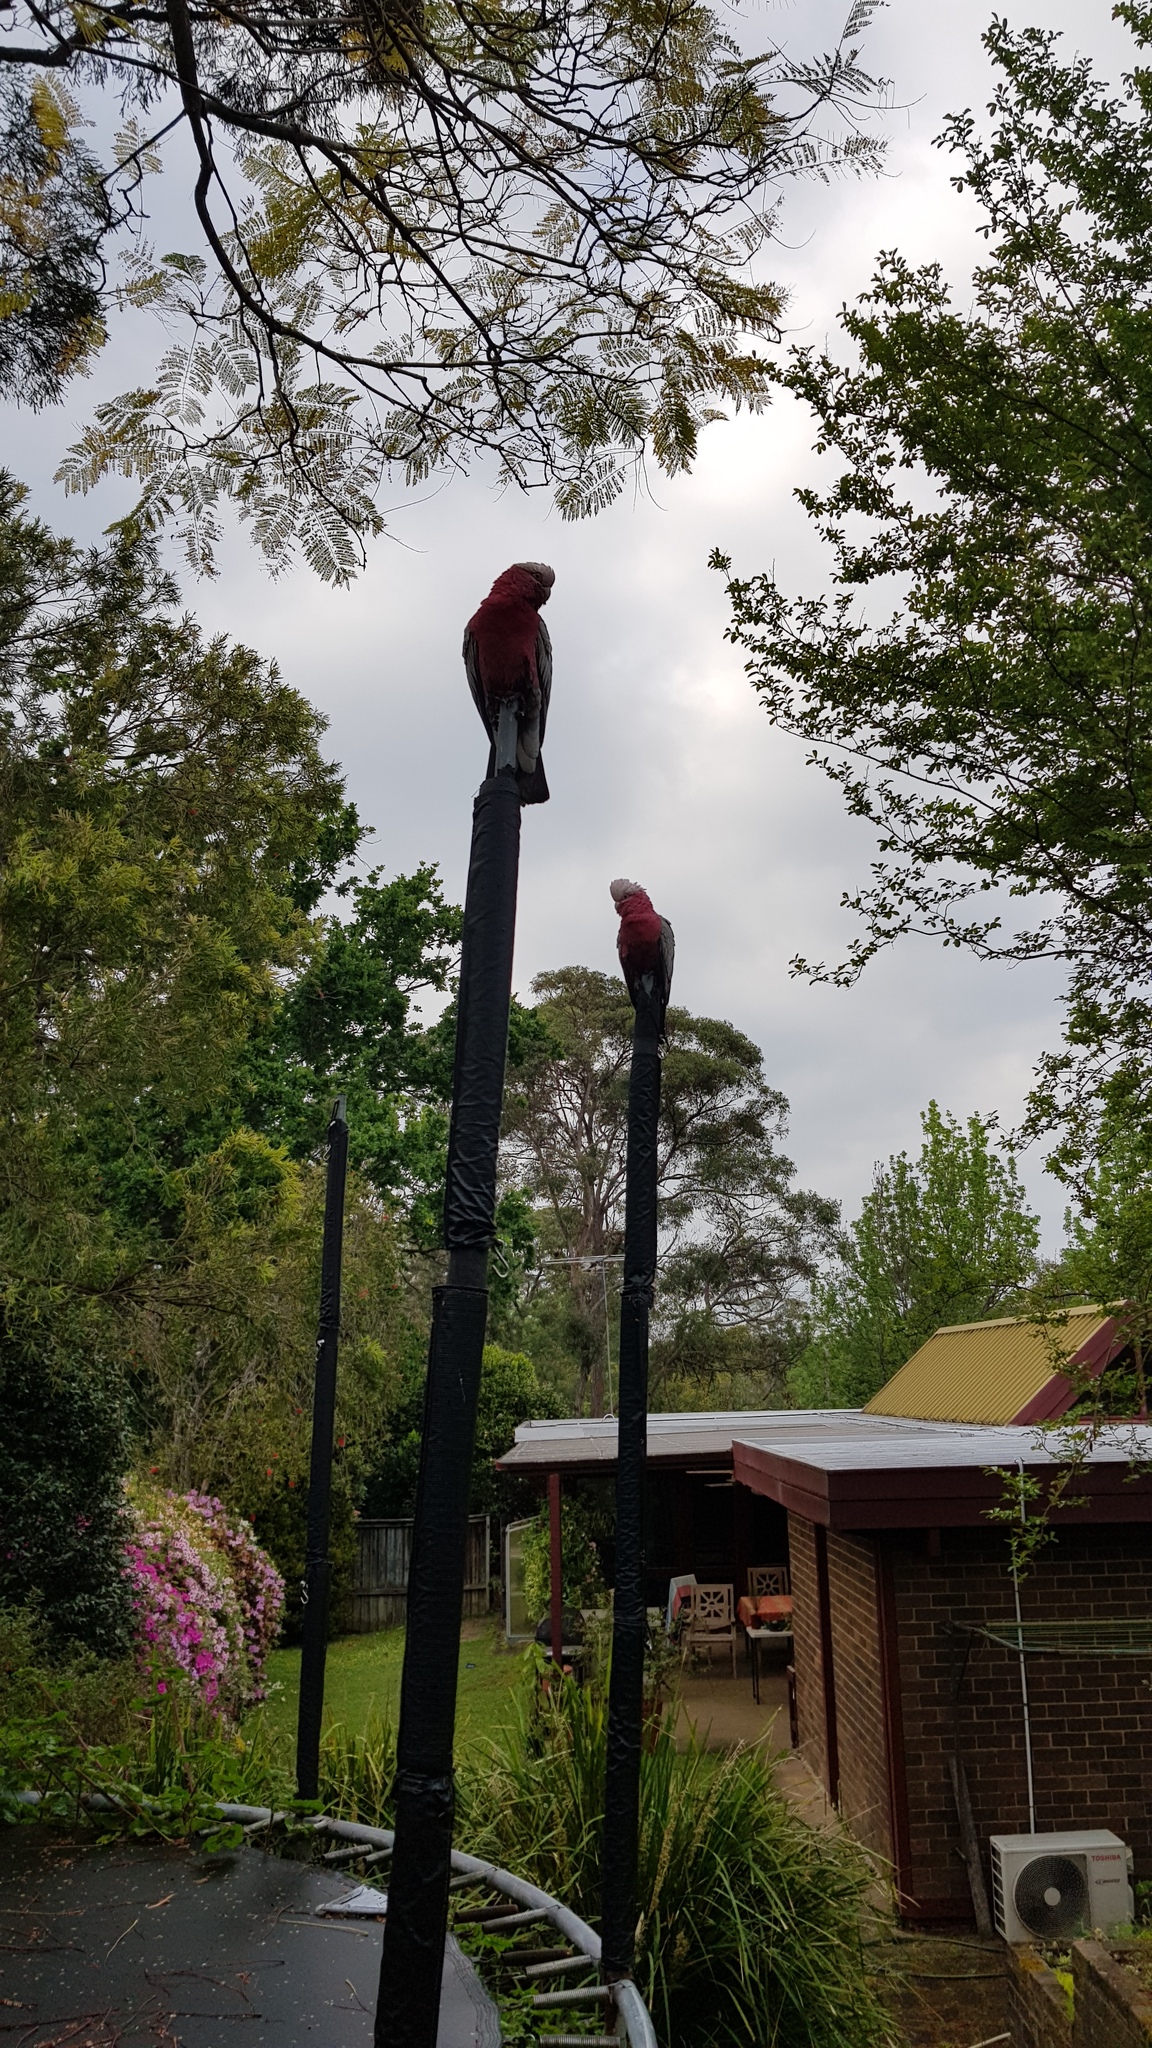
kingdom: Animalia
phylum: Chordata
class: Aves
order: Psittaciformes
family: Psittacidae
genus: Eolophus
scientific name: Eolophus roseicapilla
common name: Galah
